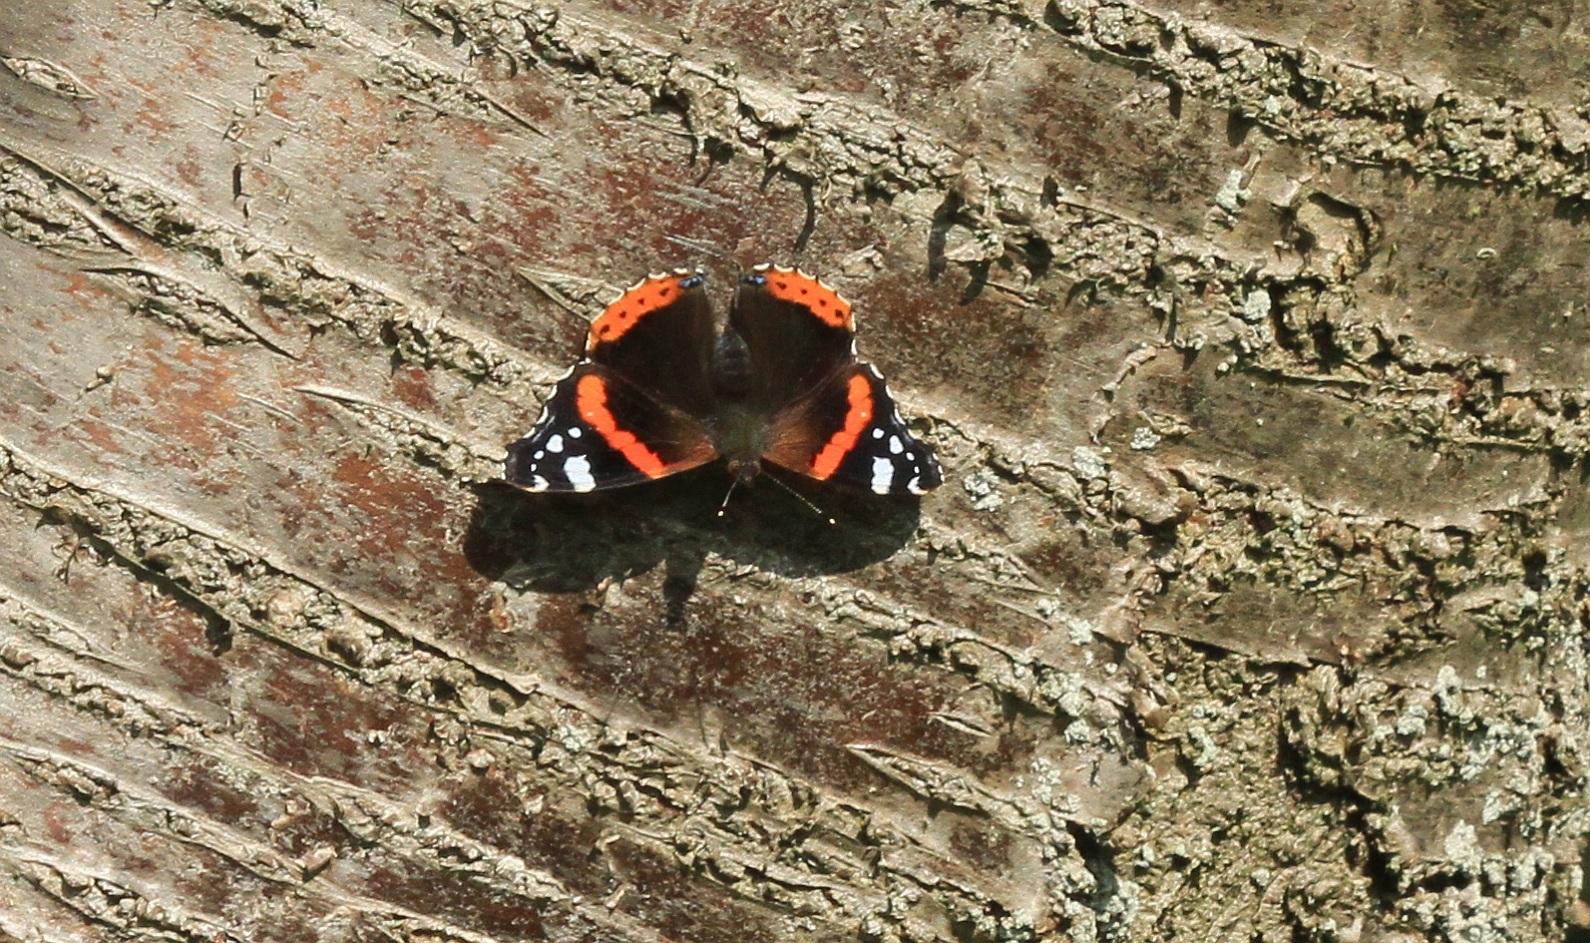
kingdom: Animalia
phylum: Arthropoda
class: Insecta
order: Lepidoptera
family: Nymphalidae
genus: Vanessa
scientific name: Vanessa atalanta
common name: Red admiral
